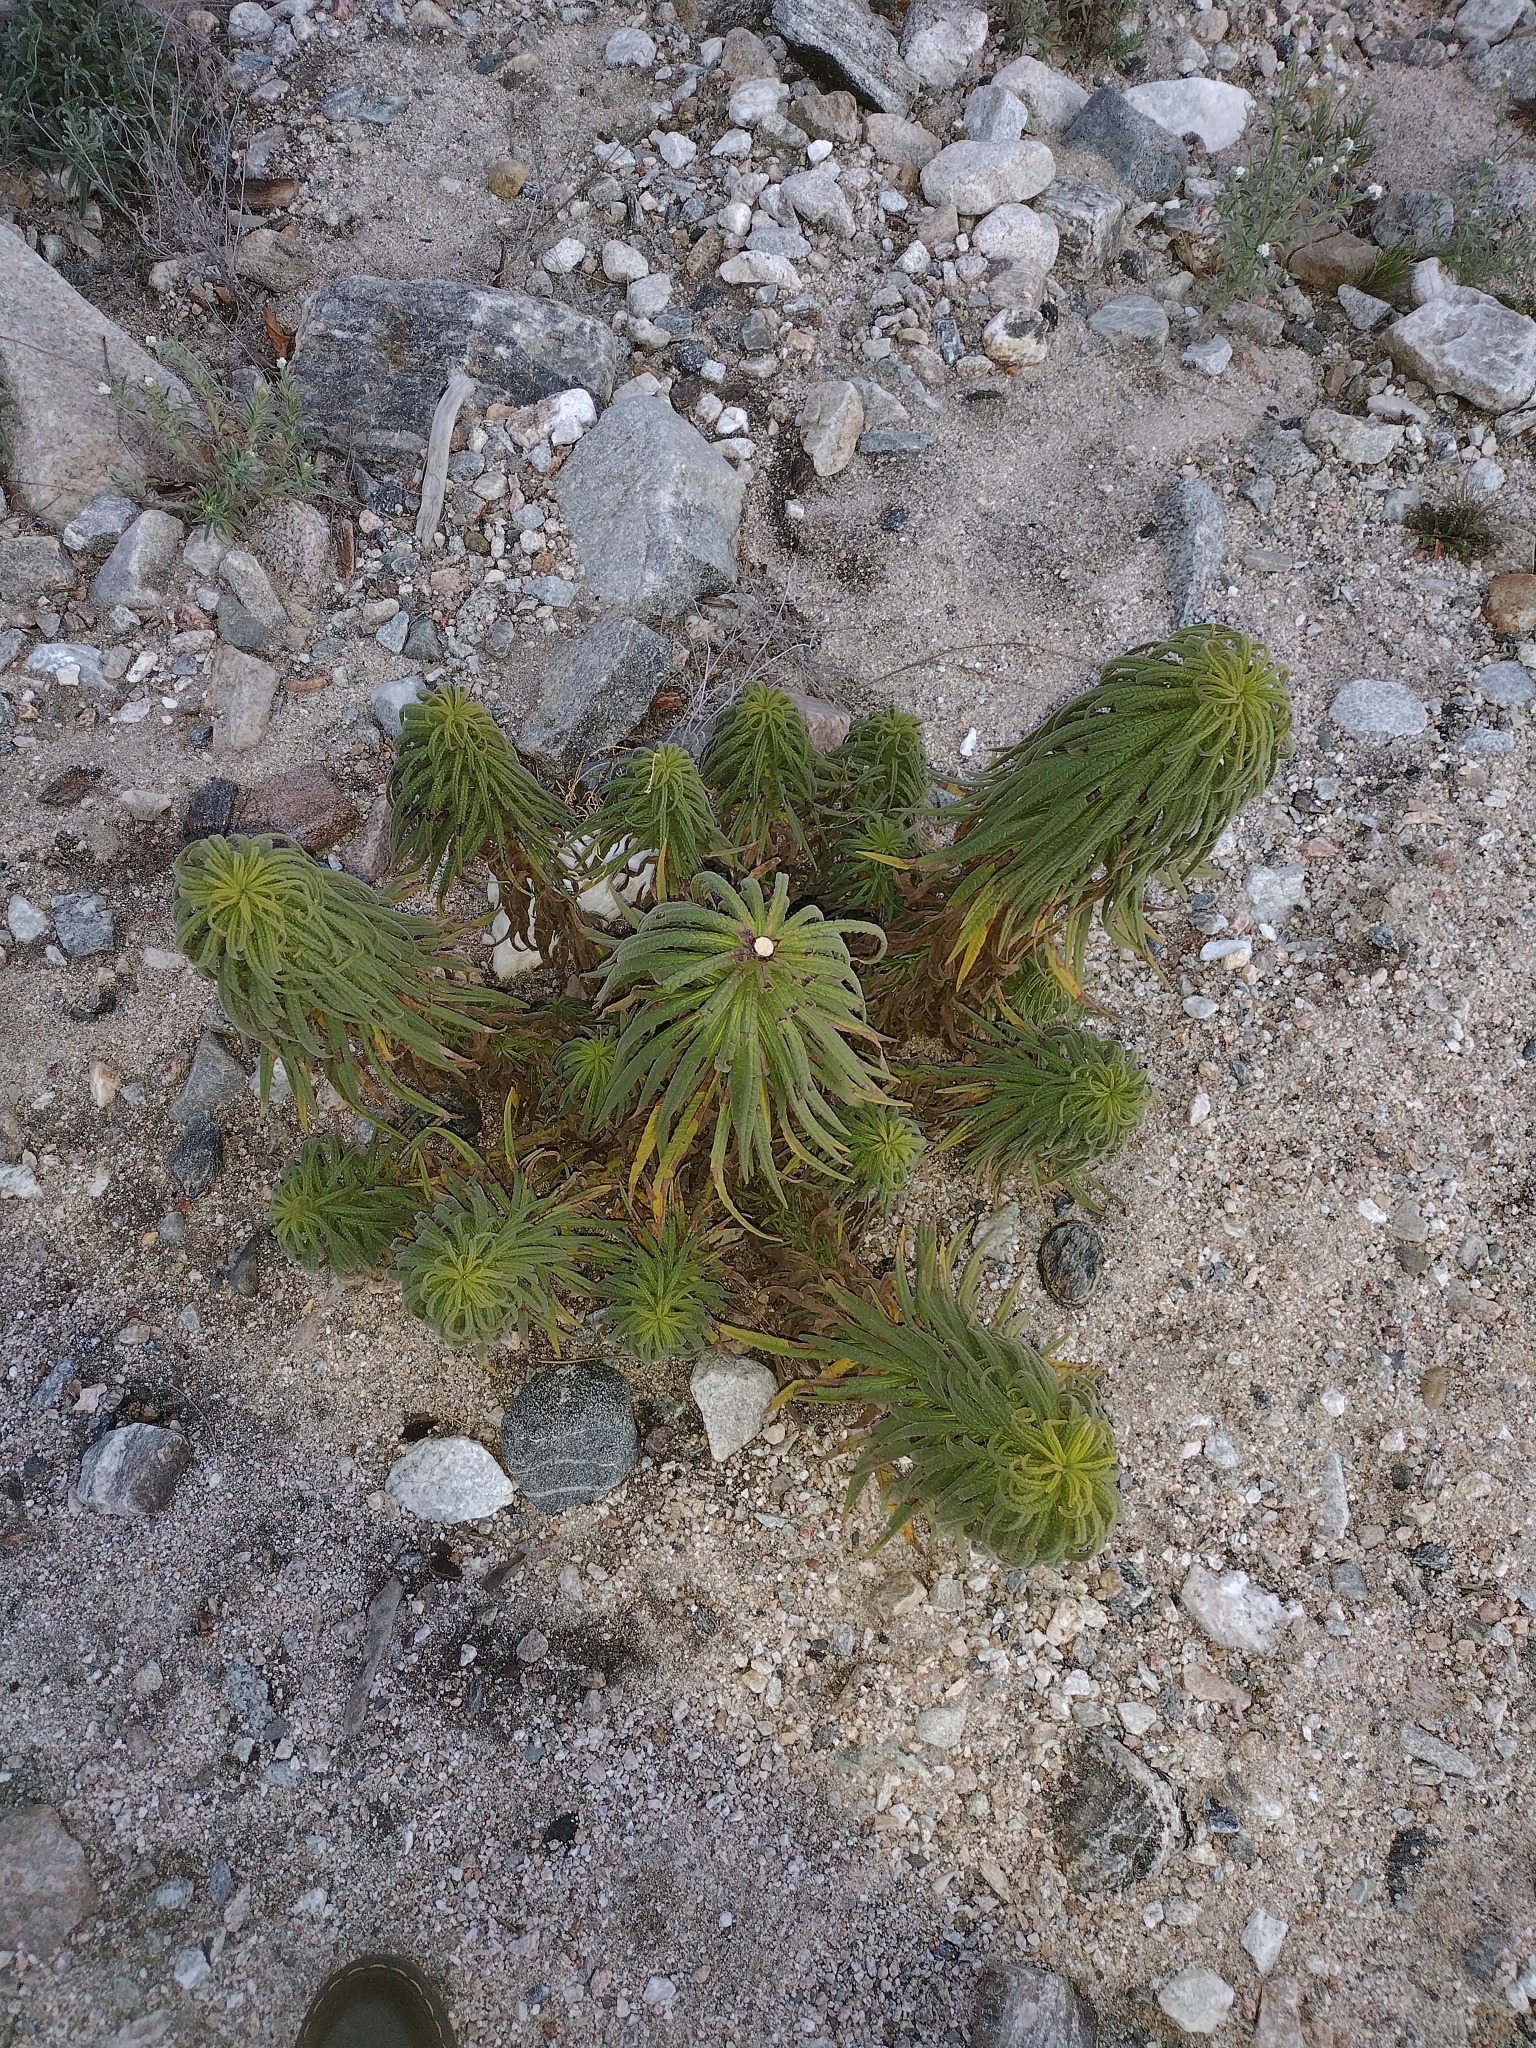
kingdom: Plantae
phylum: Tracheophyta
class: Magnoliopsida
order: Boraginales
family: Namaceae
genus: Turricula
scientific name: Turricula parryi
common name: Poodle-dog-bush
